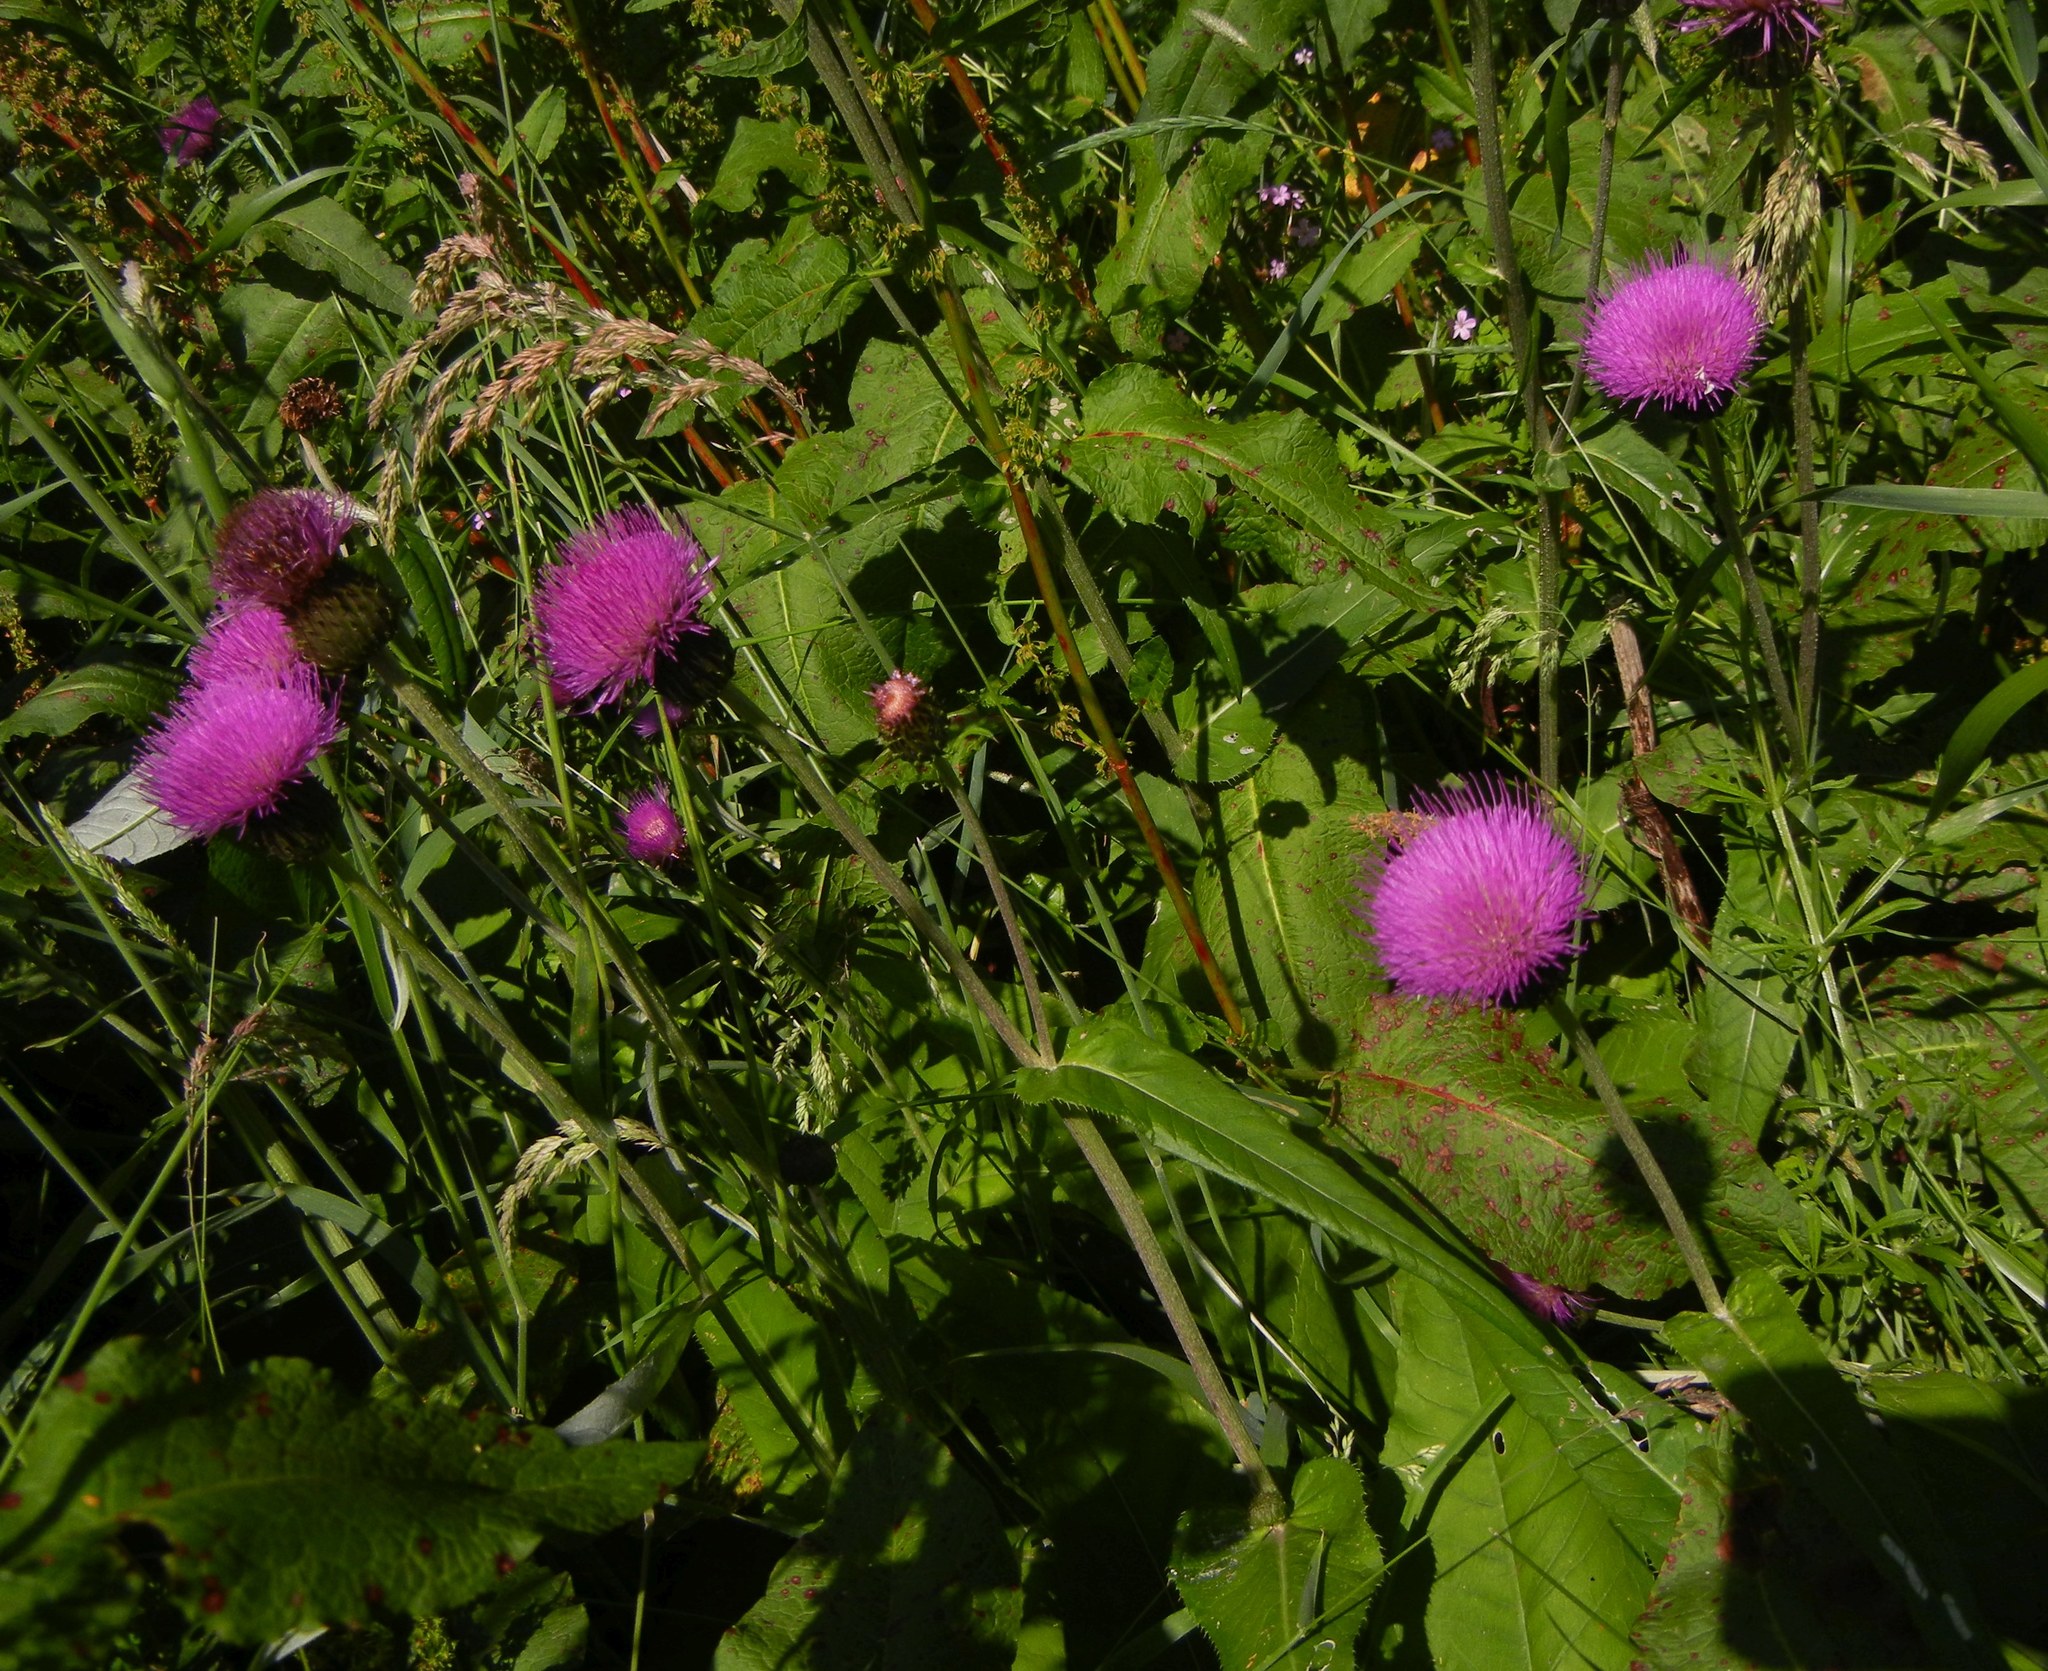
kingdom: Plantae
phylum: Tracheophyta
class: Magnoliopsida
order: Asterales
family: Asteraceae
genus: Cirsium
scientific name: Cirsium heterophyllum
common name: Melancholy thistle
